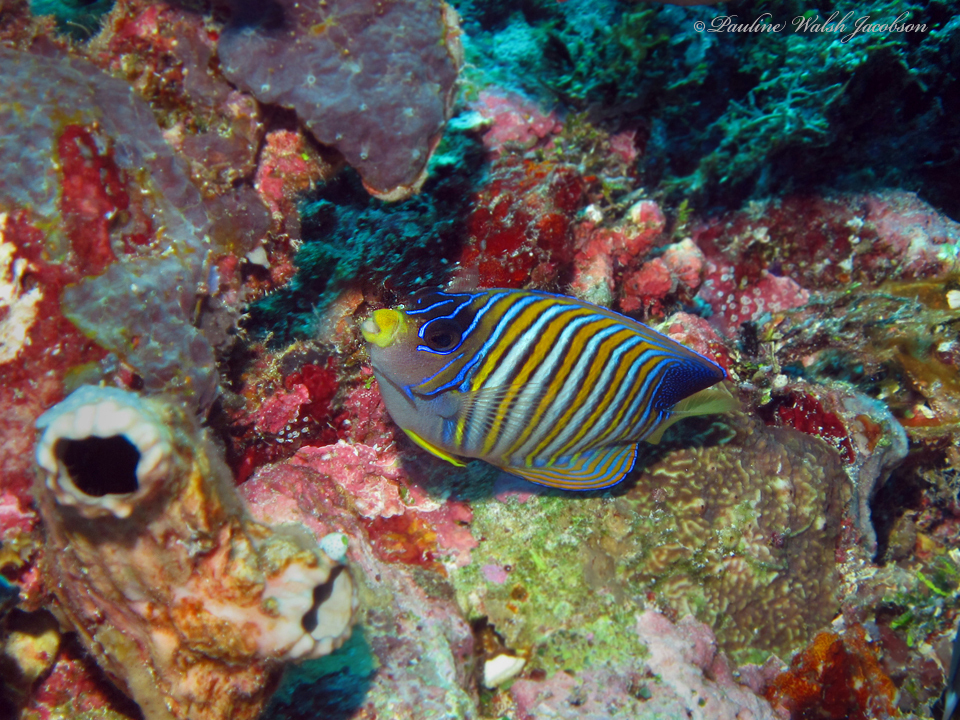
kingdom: Animalia
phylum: Chordata
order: Perciformes
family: Pomacanthidae
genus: Pygoplites
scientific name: Pygoplites diacanthus
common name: Regal angelfish
